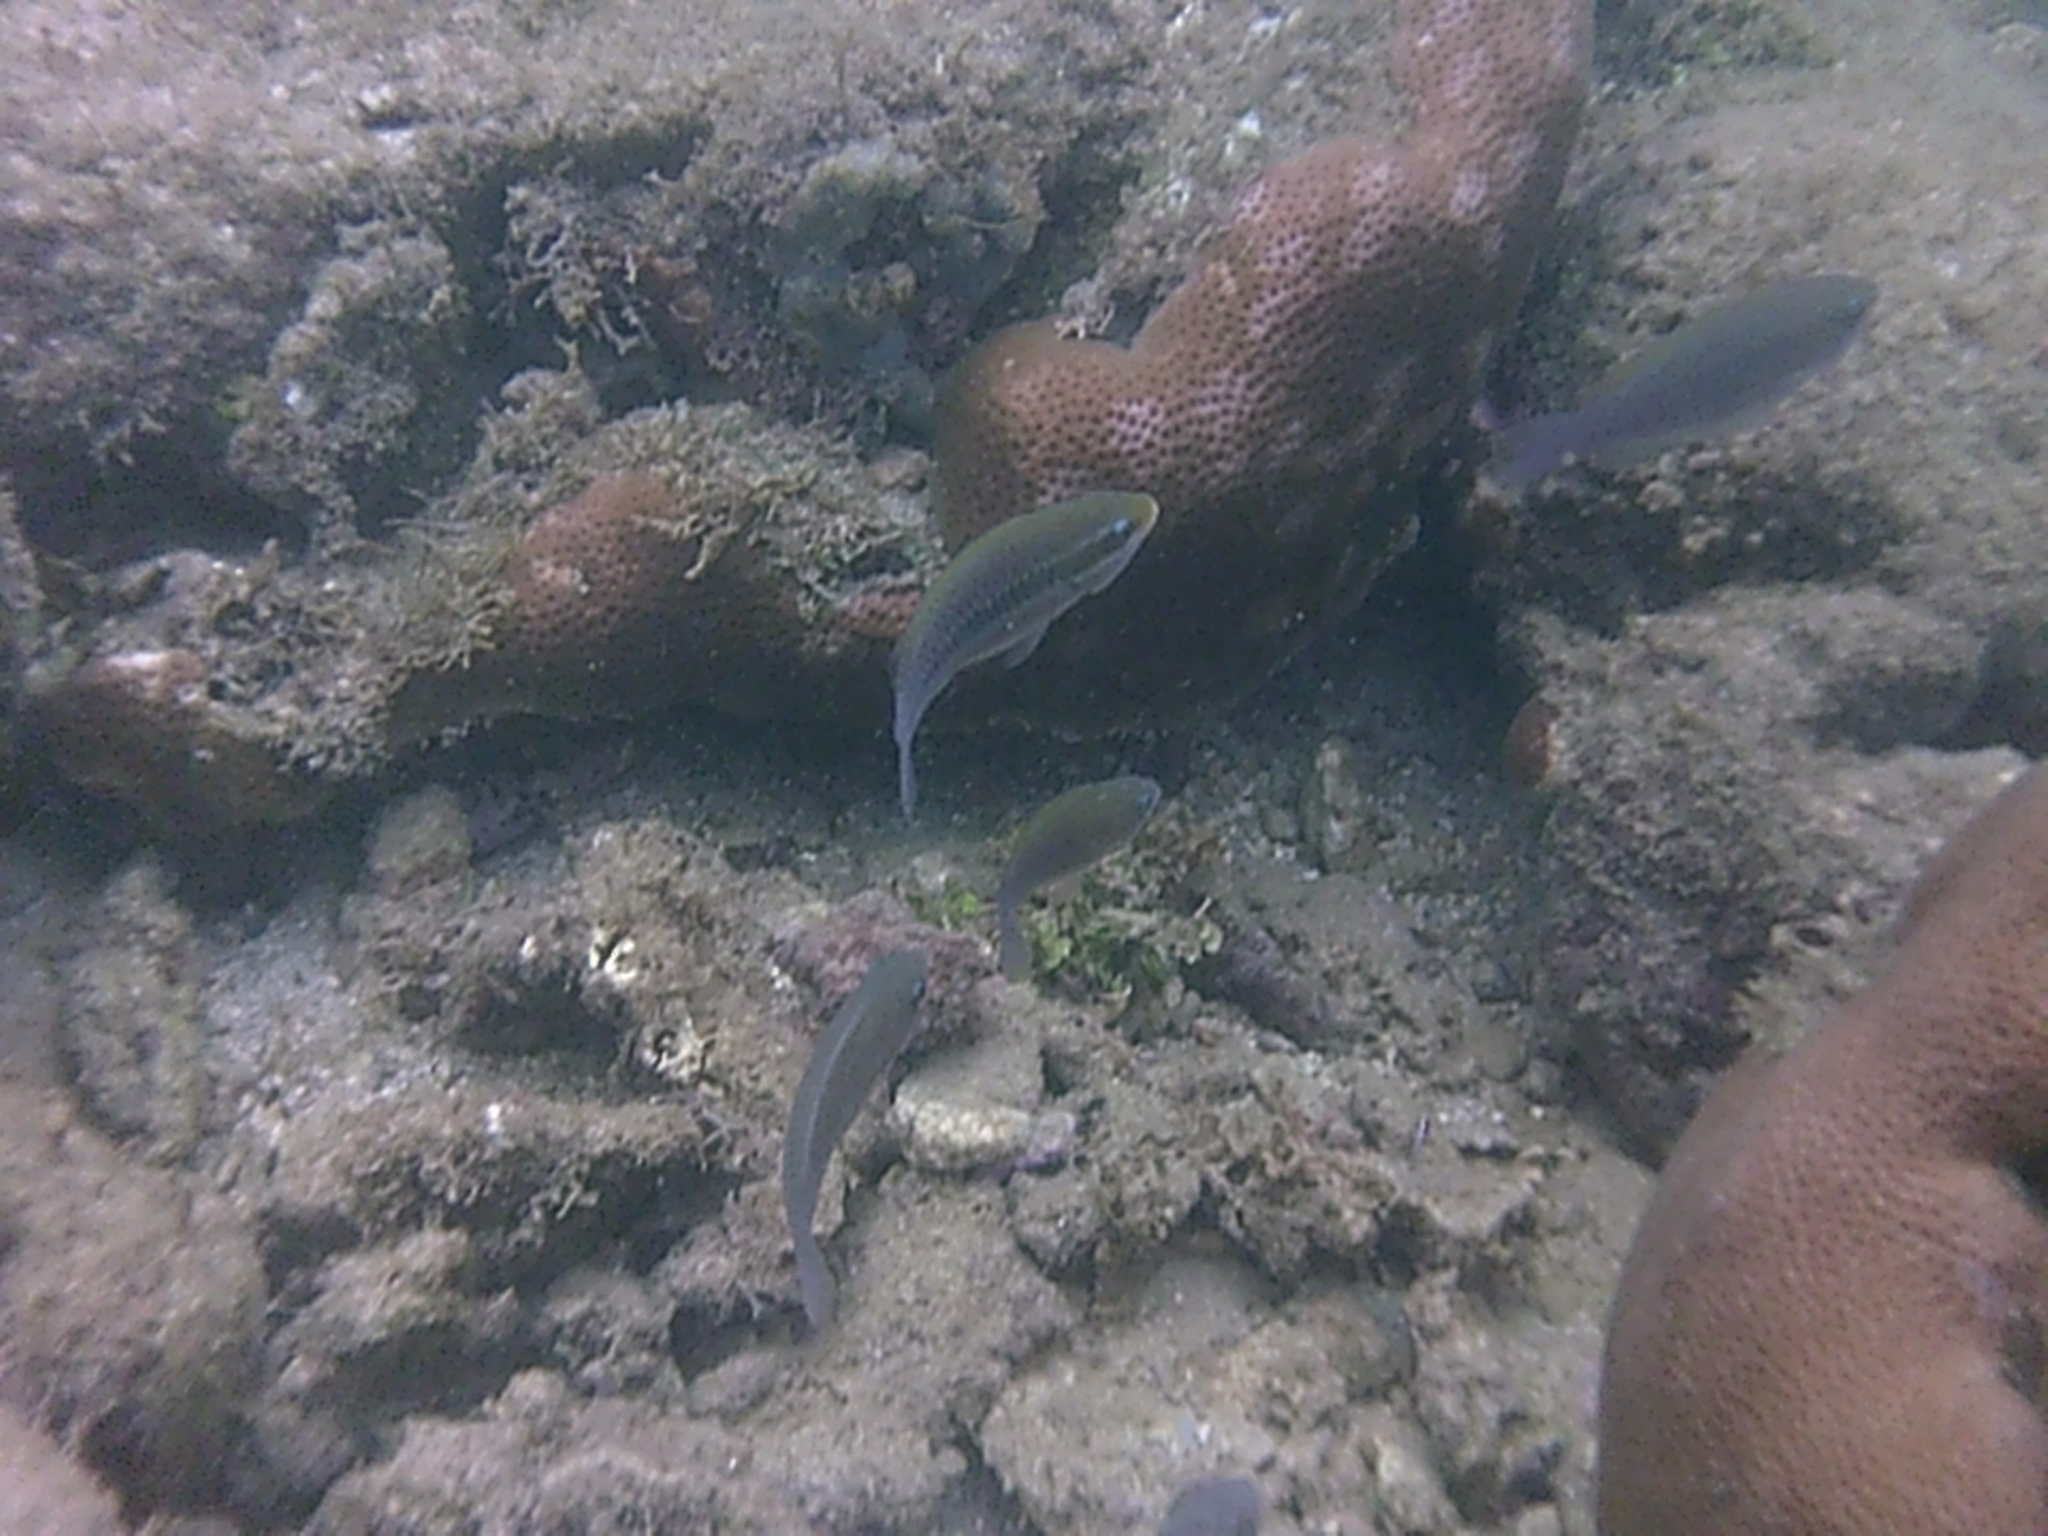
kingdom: Animalia
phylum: Chordata
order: Perciformes
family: Scaridae
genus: Scarus
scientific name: Scarus iseri
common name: Striped parrotfish
